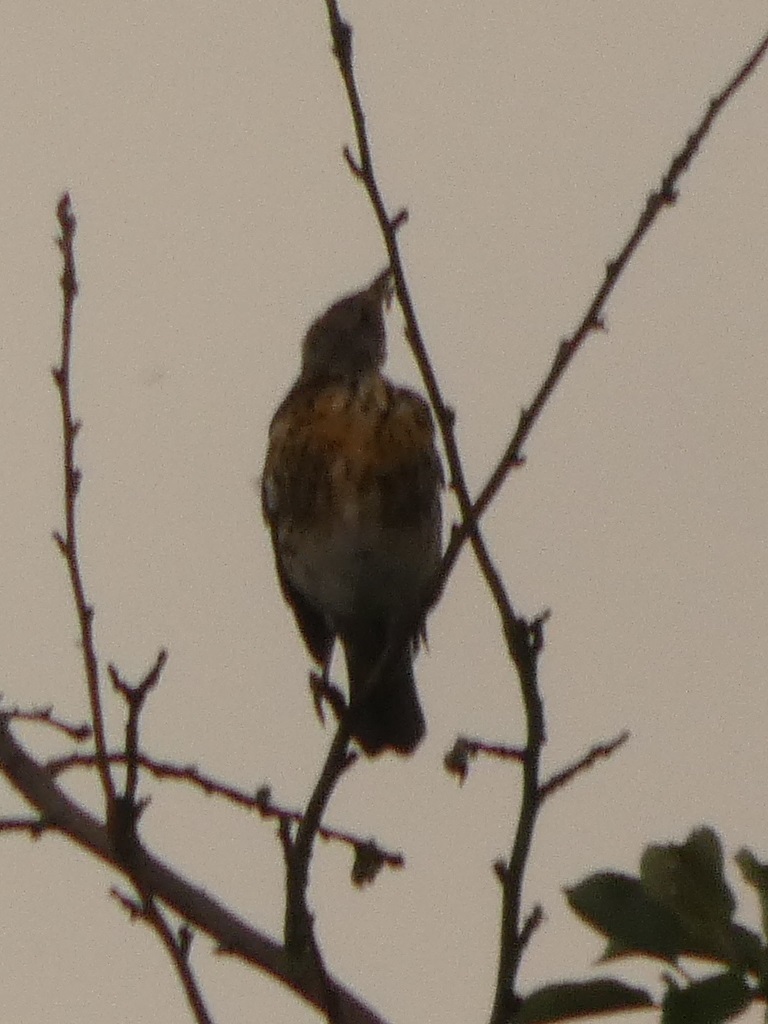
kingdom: Animalia
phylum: Chordata
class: Aves
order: Passeriformes
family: Turdidae
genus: Turdus
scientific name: Turdus pilaris
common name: Fieldfare
